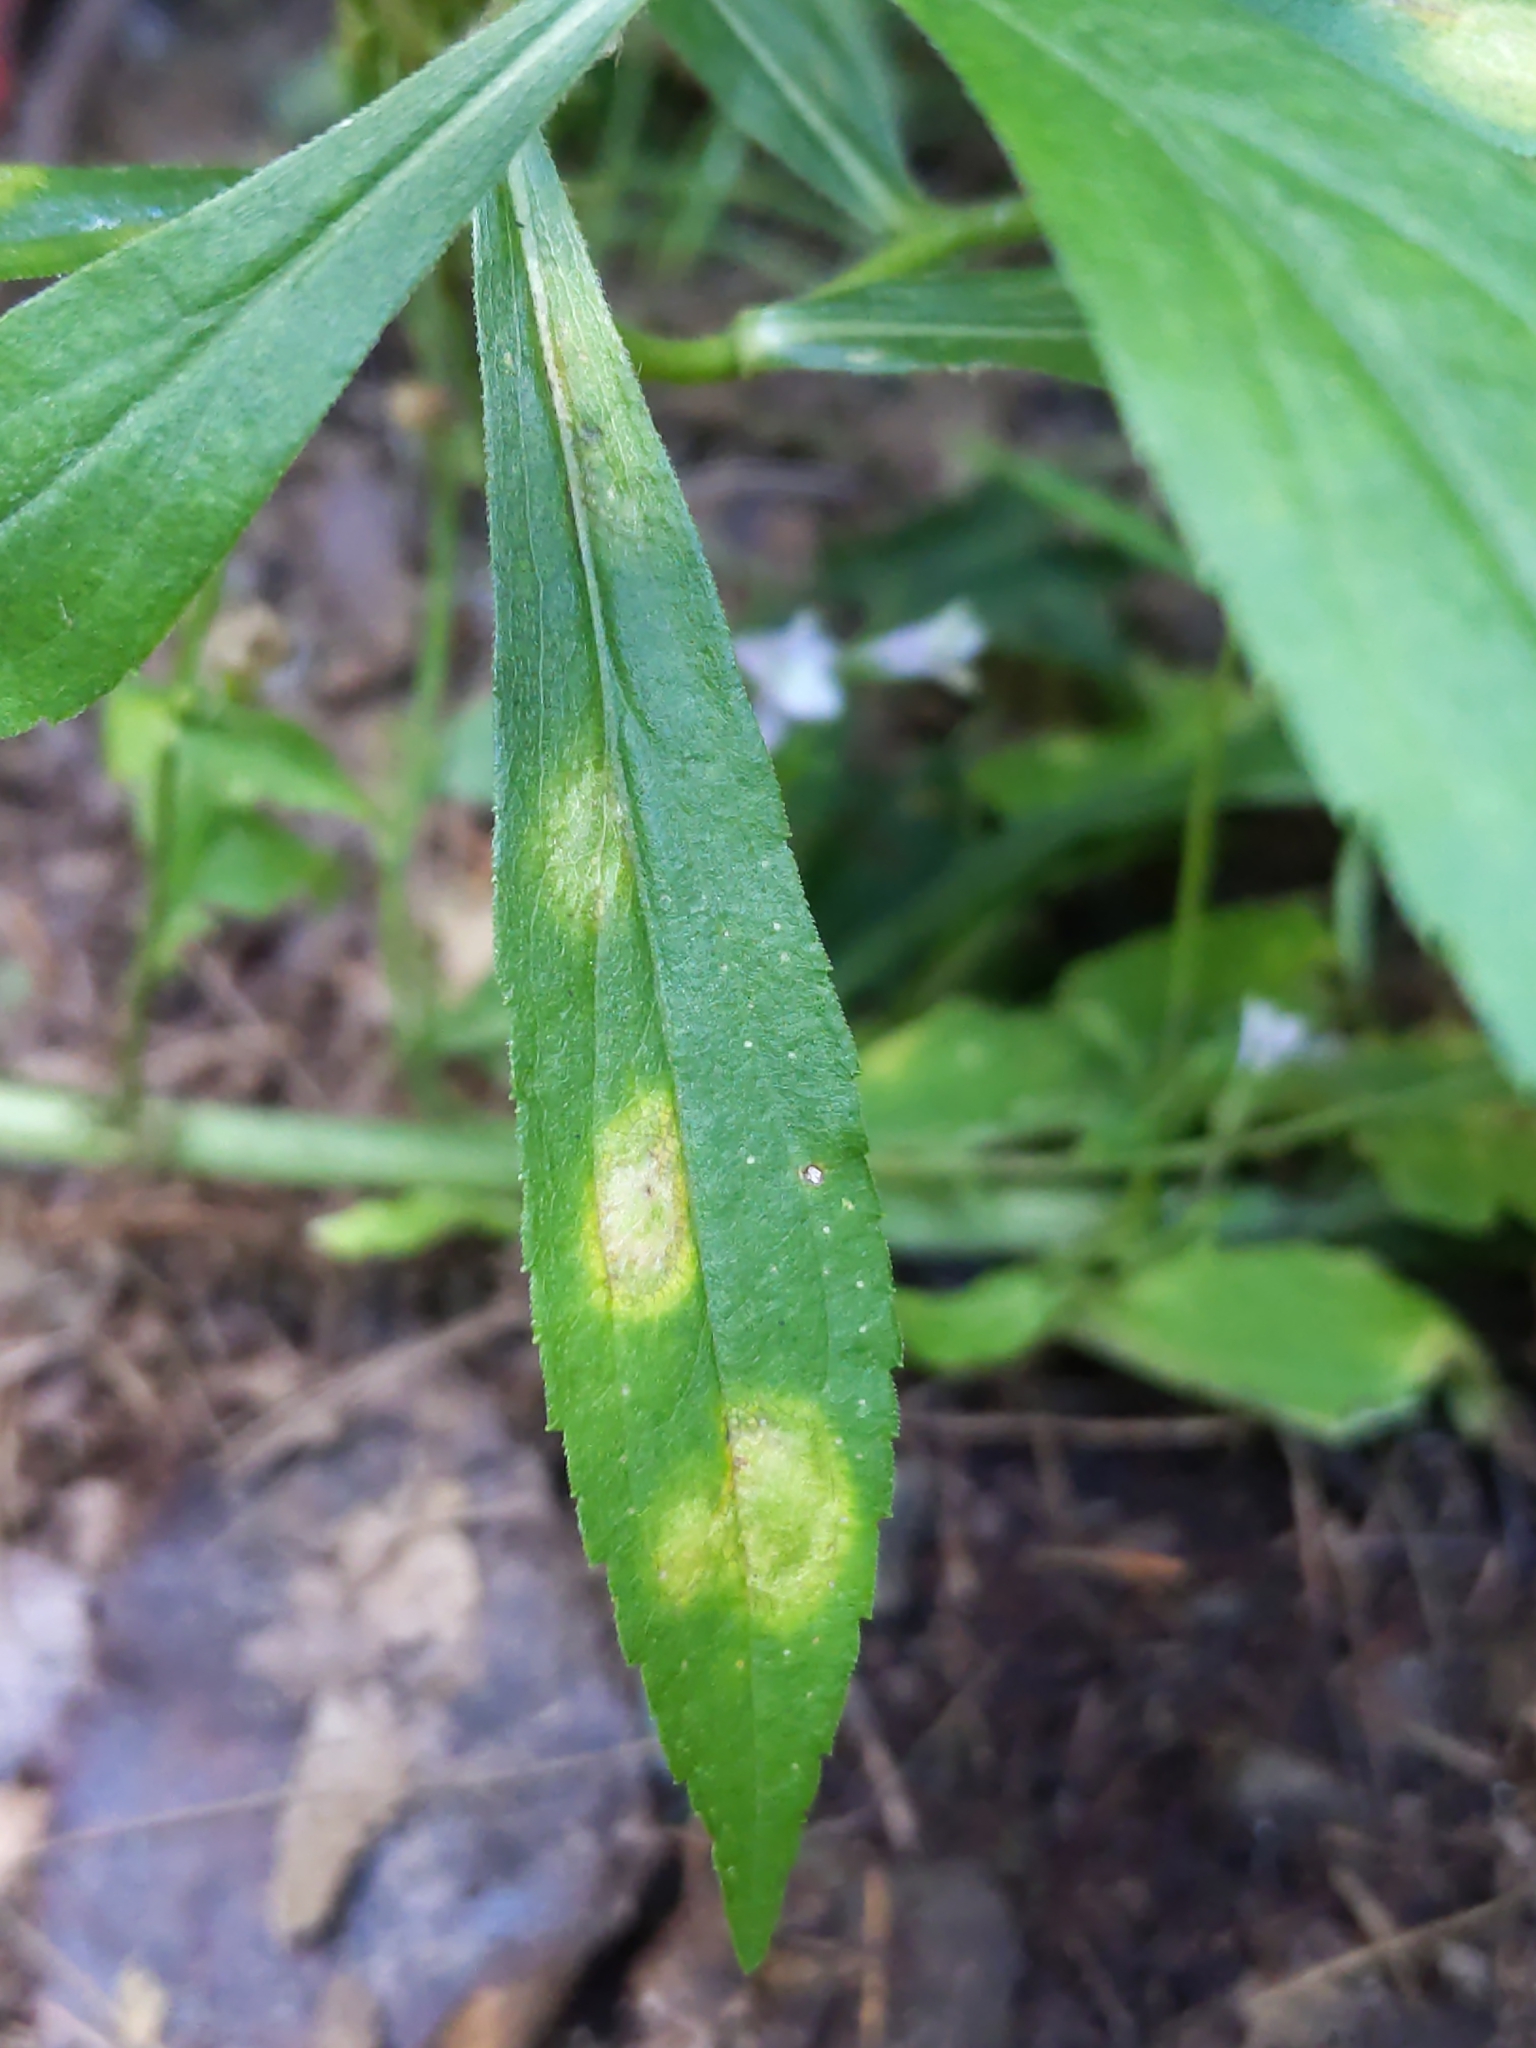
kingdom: Animalia
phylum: Arthropoda
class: Insecta
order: Diptera
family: Cecidomyiidae
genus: Asteromyia
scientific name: Asteromyia carbonifera
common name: Carbonifera goldenrod gall midge
